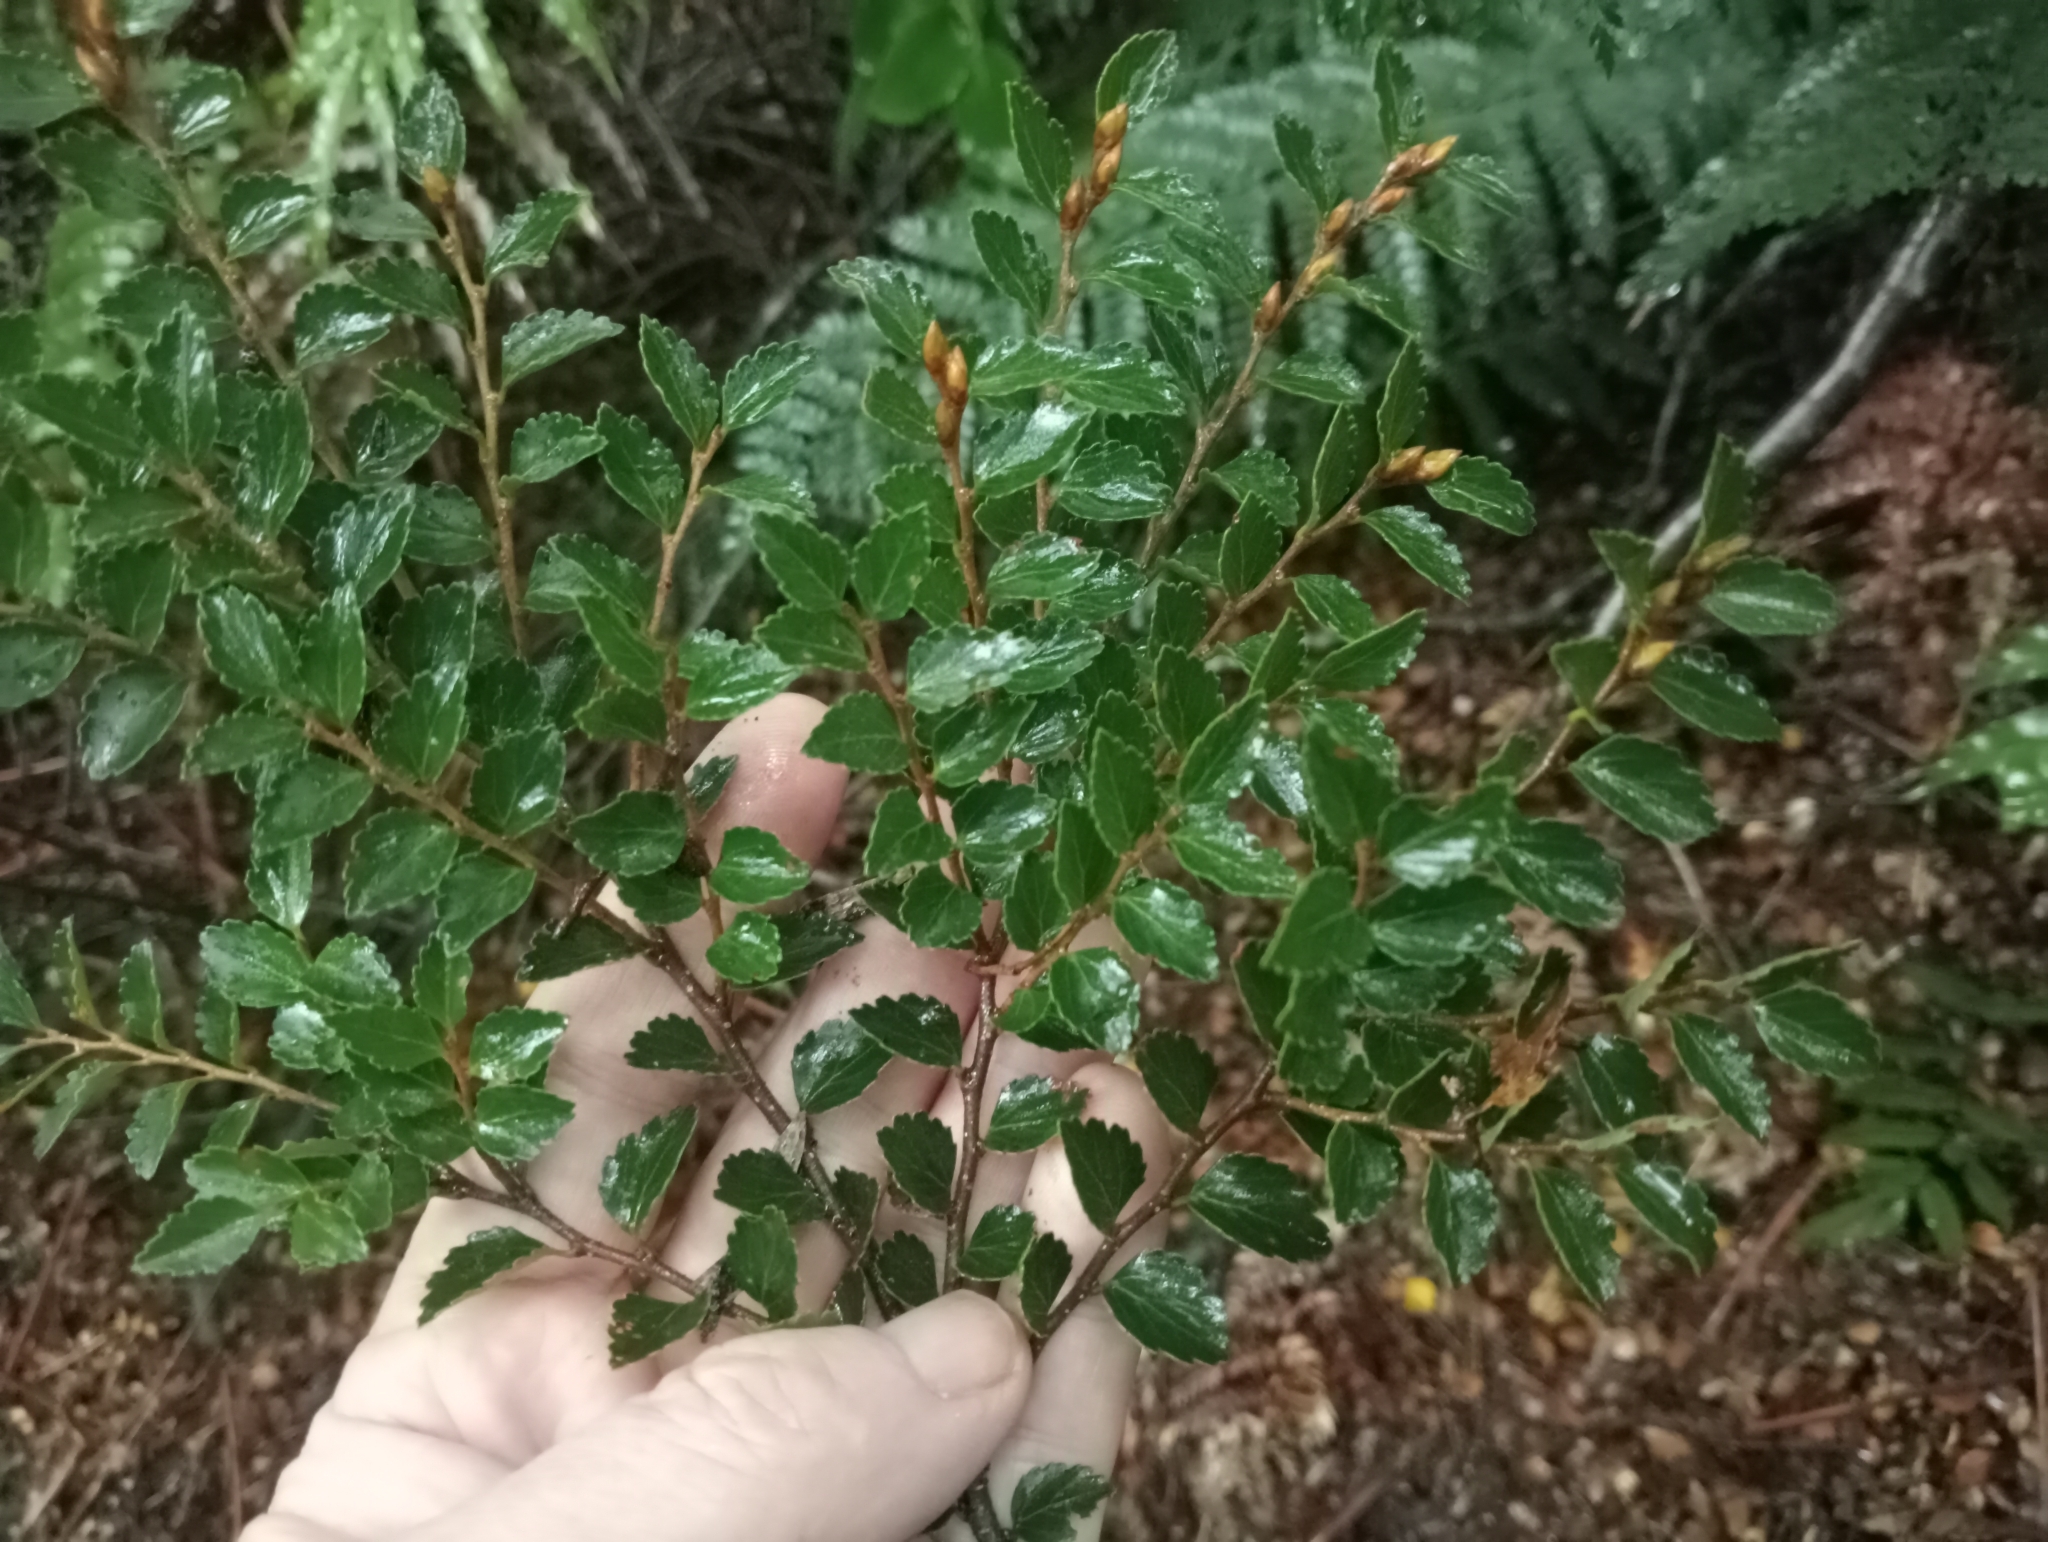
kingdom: Plantae
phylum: Tracheophyta
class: Magnoliopsida
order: Fagales
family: Nothofagaceae
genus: Nothofagus
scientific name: Nothofagus menziesii
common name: Silver beech
